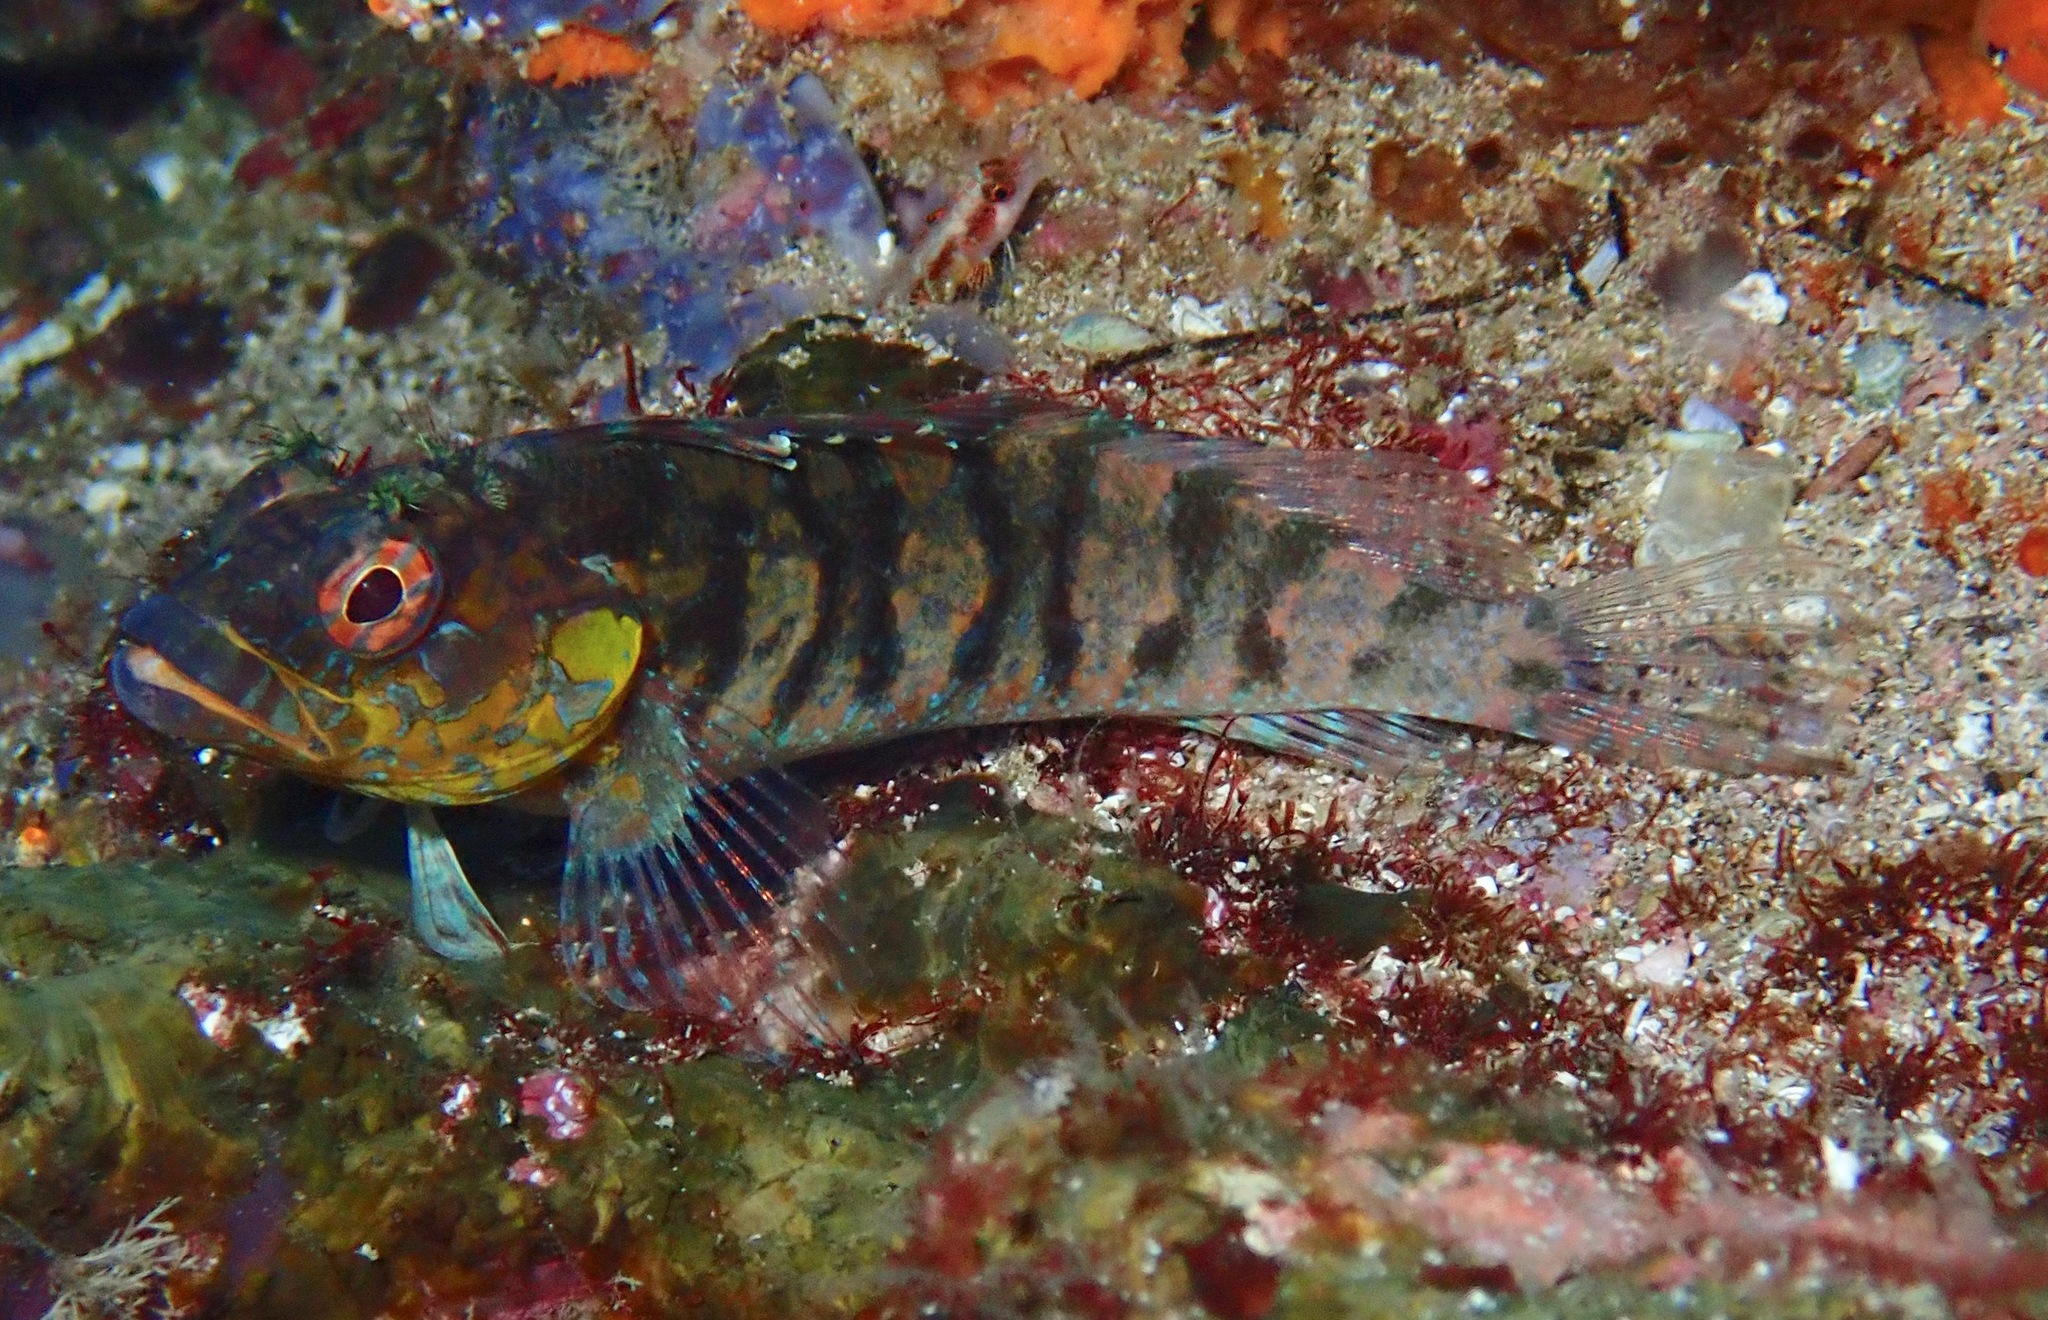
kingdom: Animalia
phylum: Chordata
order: Perciformes
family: Labrisomidae
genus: Gobioclinus
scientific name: Gobioclinus dendriticus
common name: Bravo clinid
